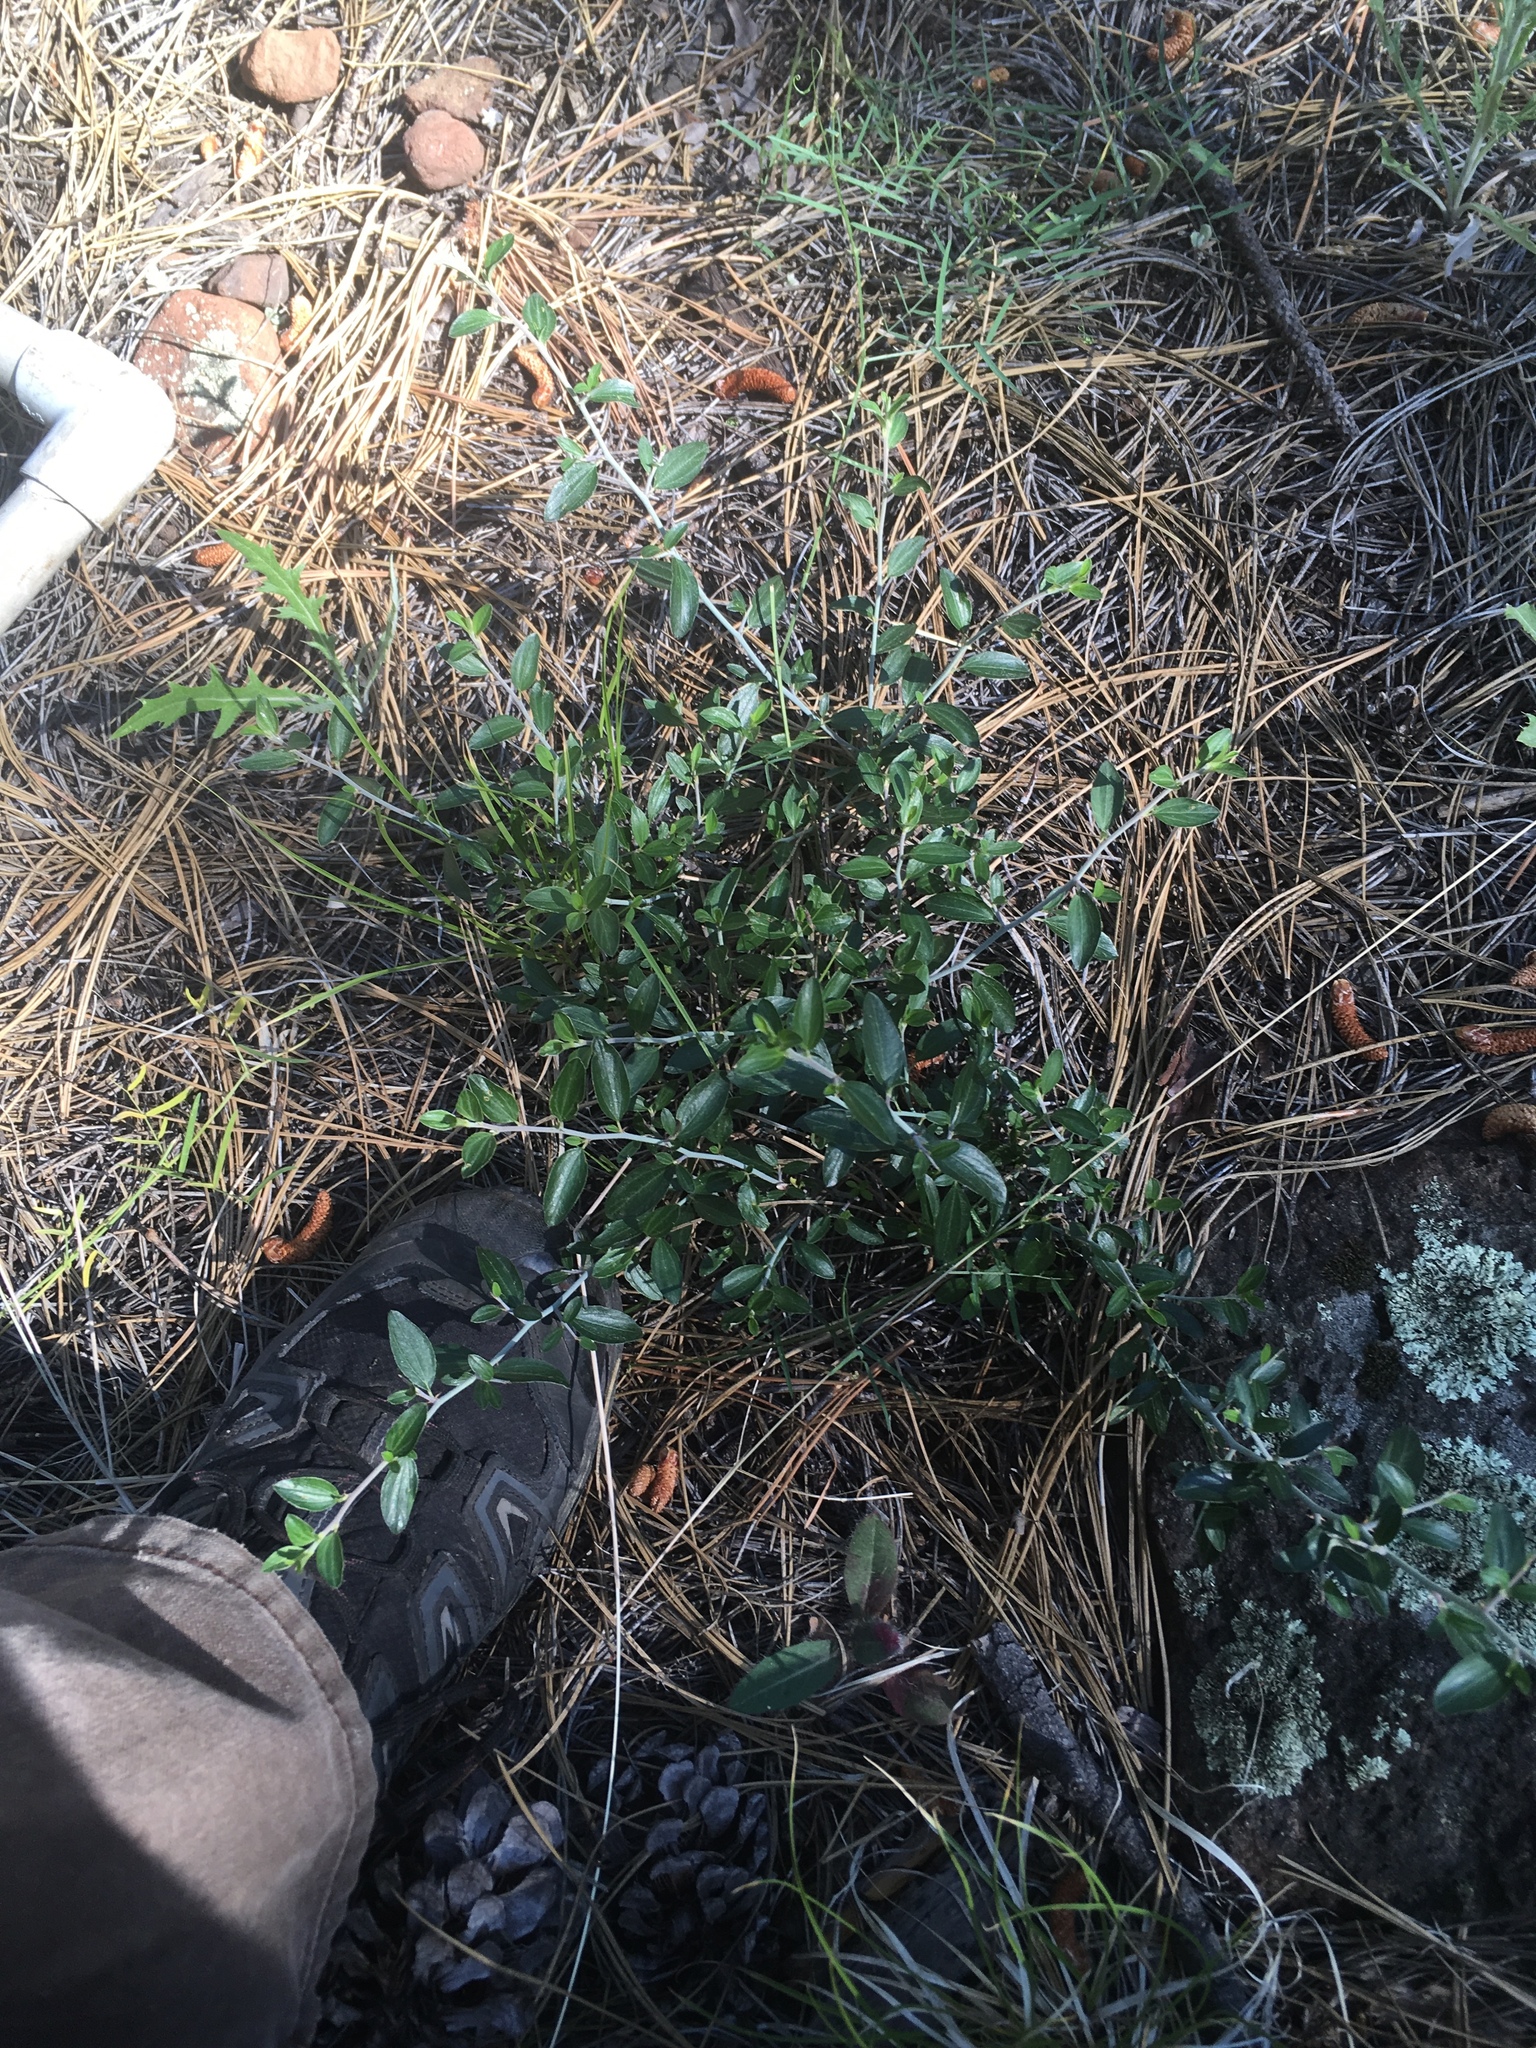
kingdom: Plantae
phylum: Tracheophyta
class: Magnoliopsida
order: Rosales
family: Rhamnaceae
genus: Ceanothus
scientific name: Ceanothus fendleri
